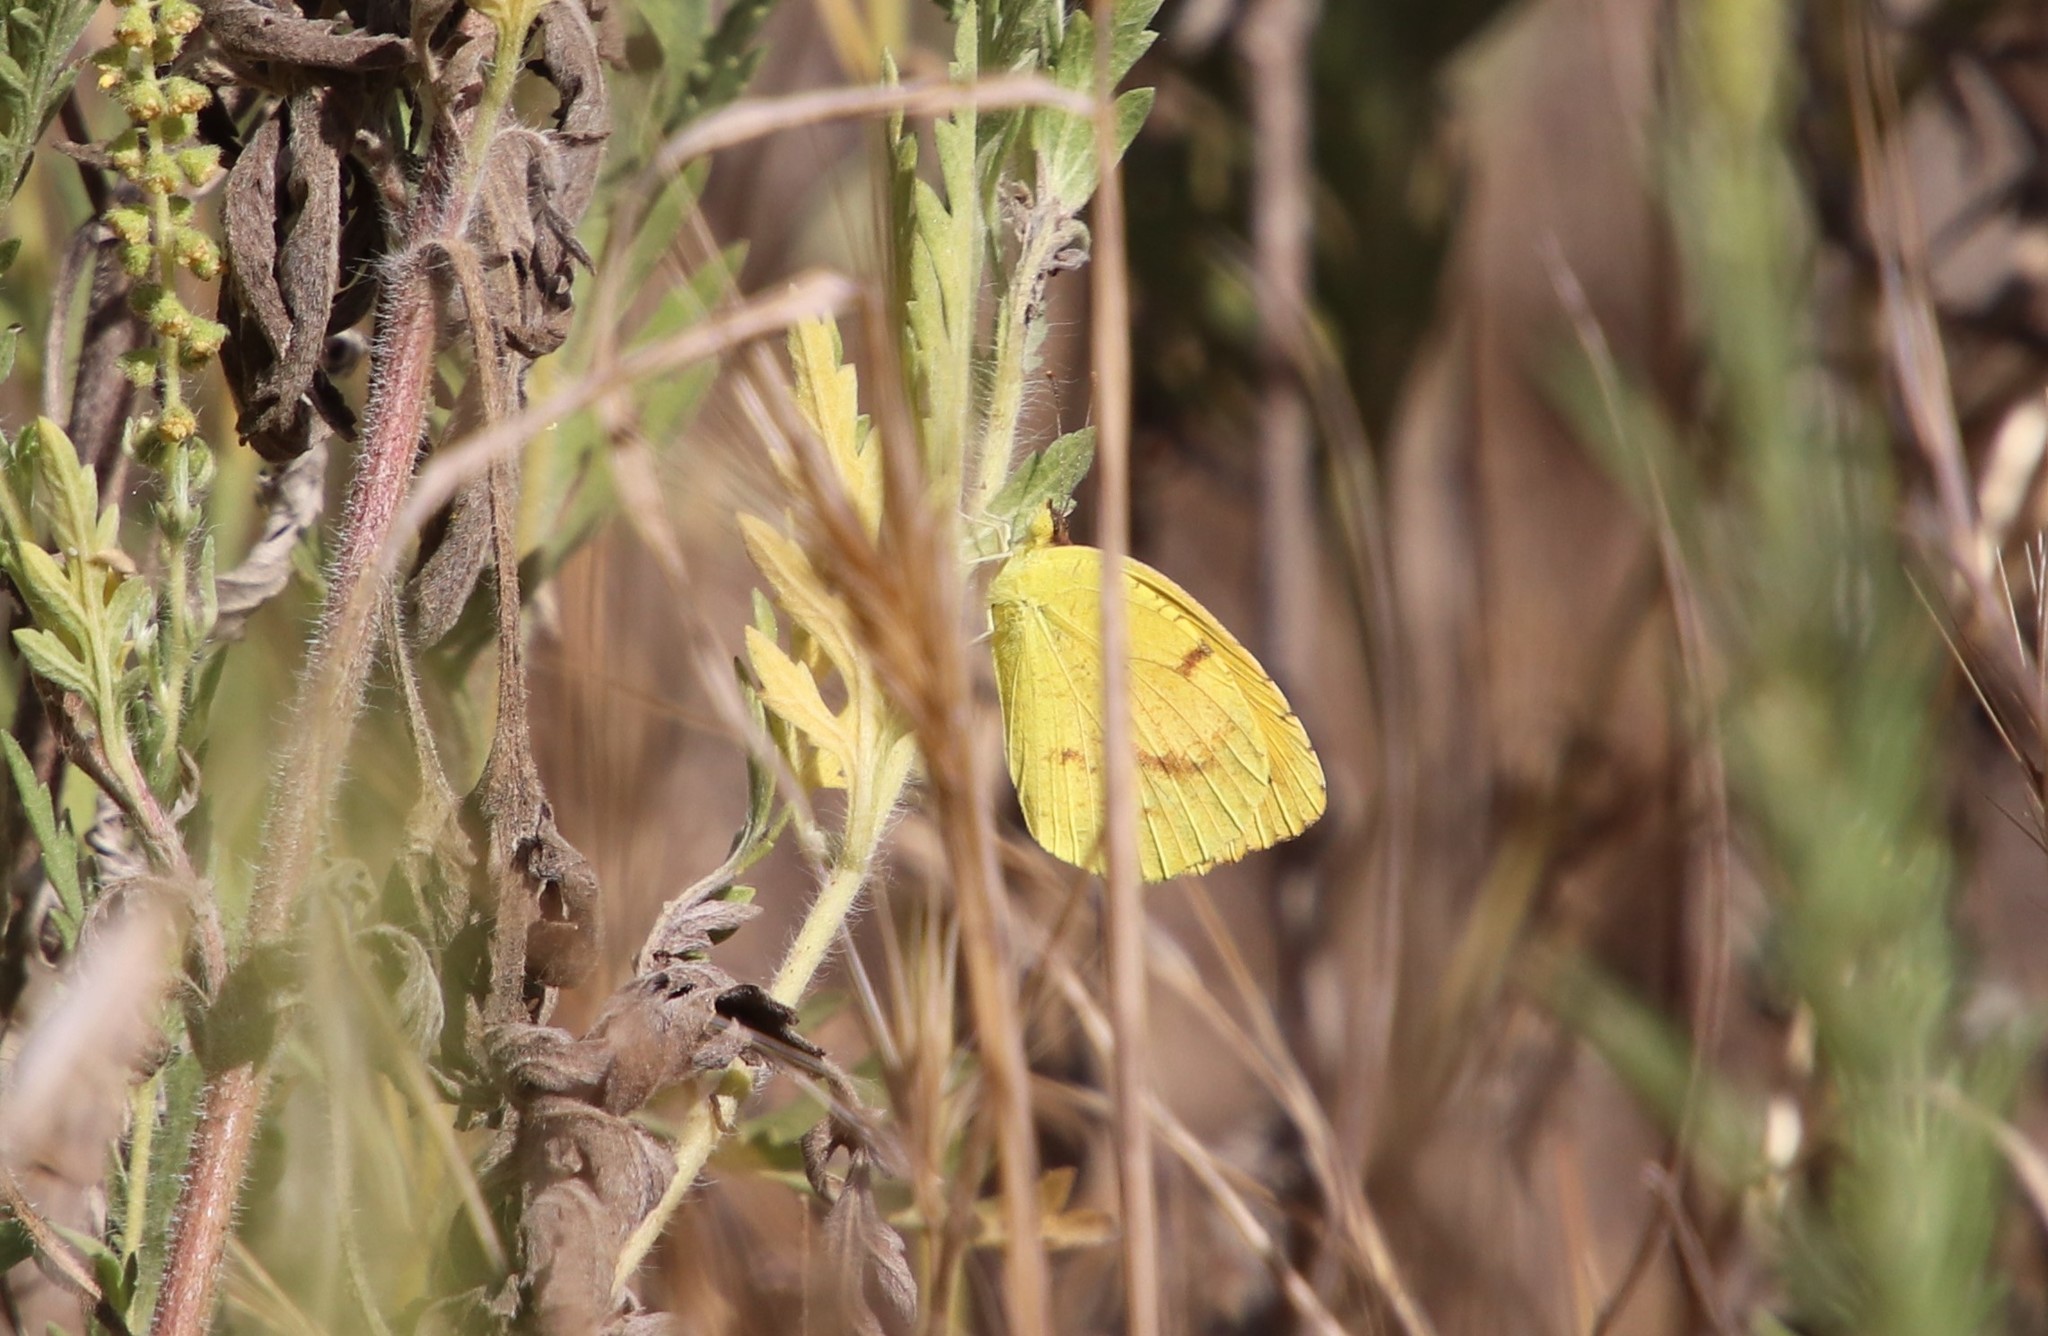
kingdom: Animalia
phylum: Arthropoda
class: Insecta
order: Lepidoptera
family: Pieridae
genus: Abaeis
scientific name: Abaeis nicippe
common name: Sleepy orange
